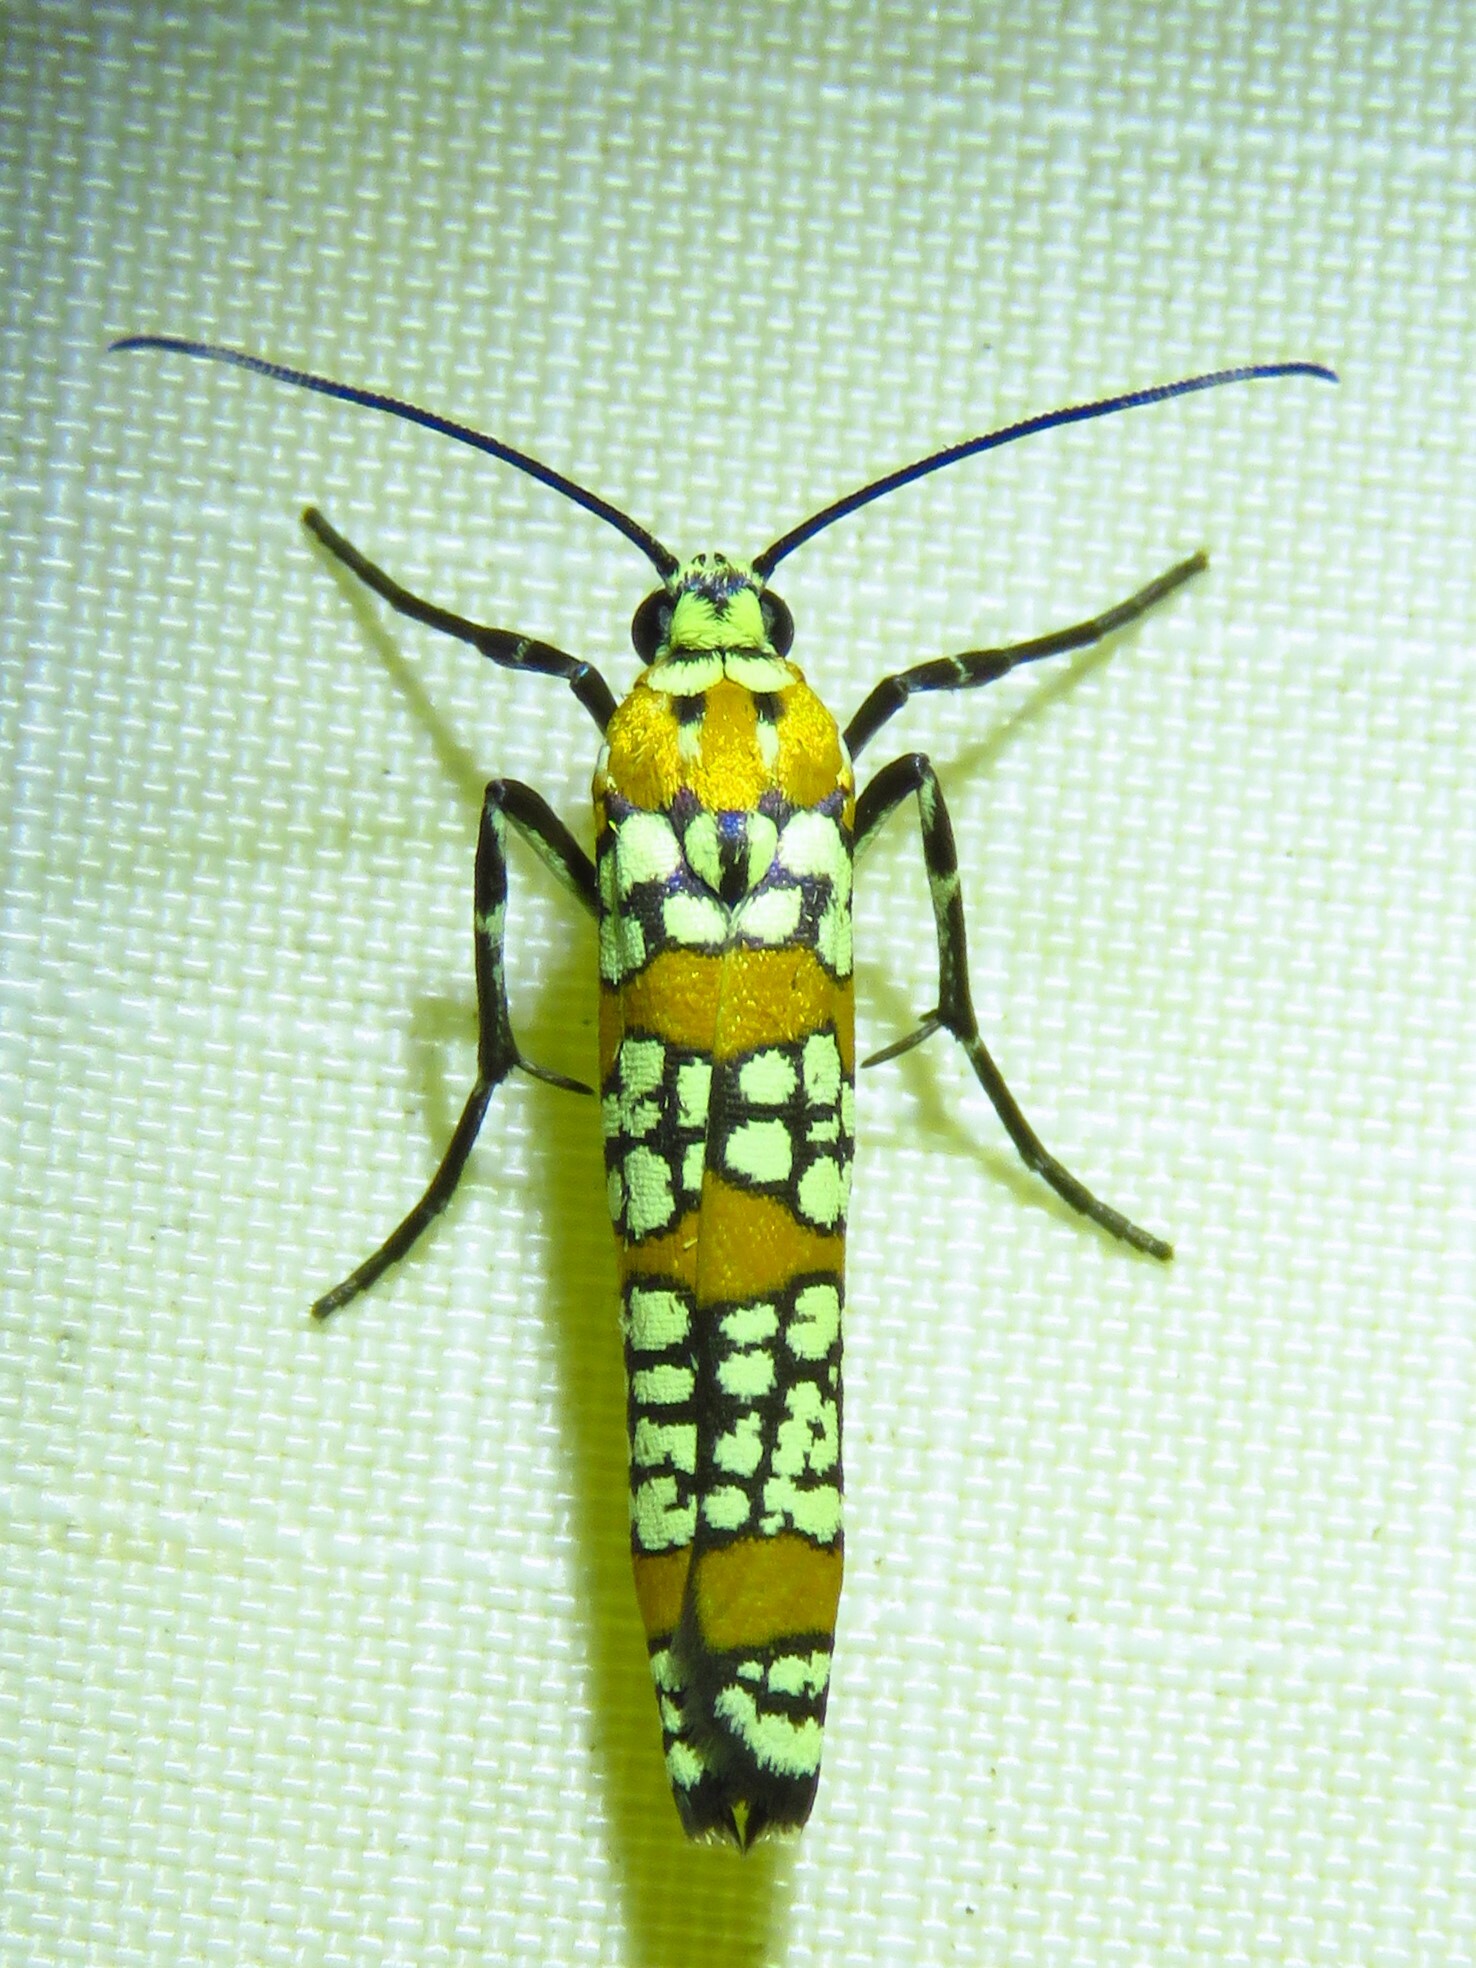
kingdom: Animalia
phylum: Arthropoda
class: Insecta
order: Lepidoptera
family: Attevidae
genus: Atteva
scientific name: Atteva punctella
